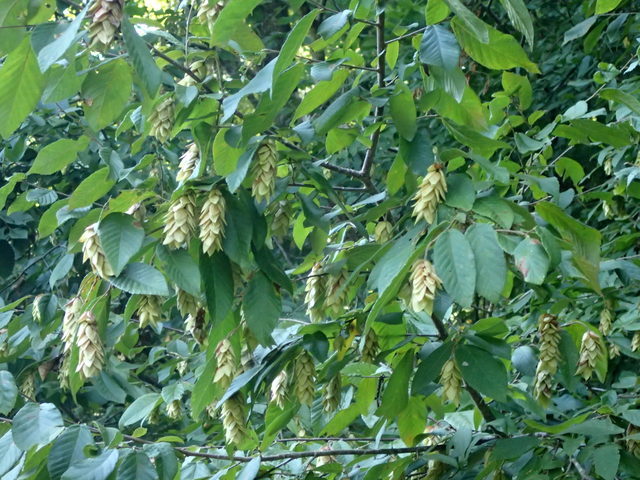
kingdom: Plantae
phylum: Tracheophyta
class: Magnoliopsida
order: Fagales
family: Betulaceae
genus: Ostrya
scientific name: Ostrya virginiana
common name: Ironwood
